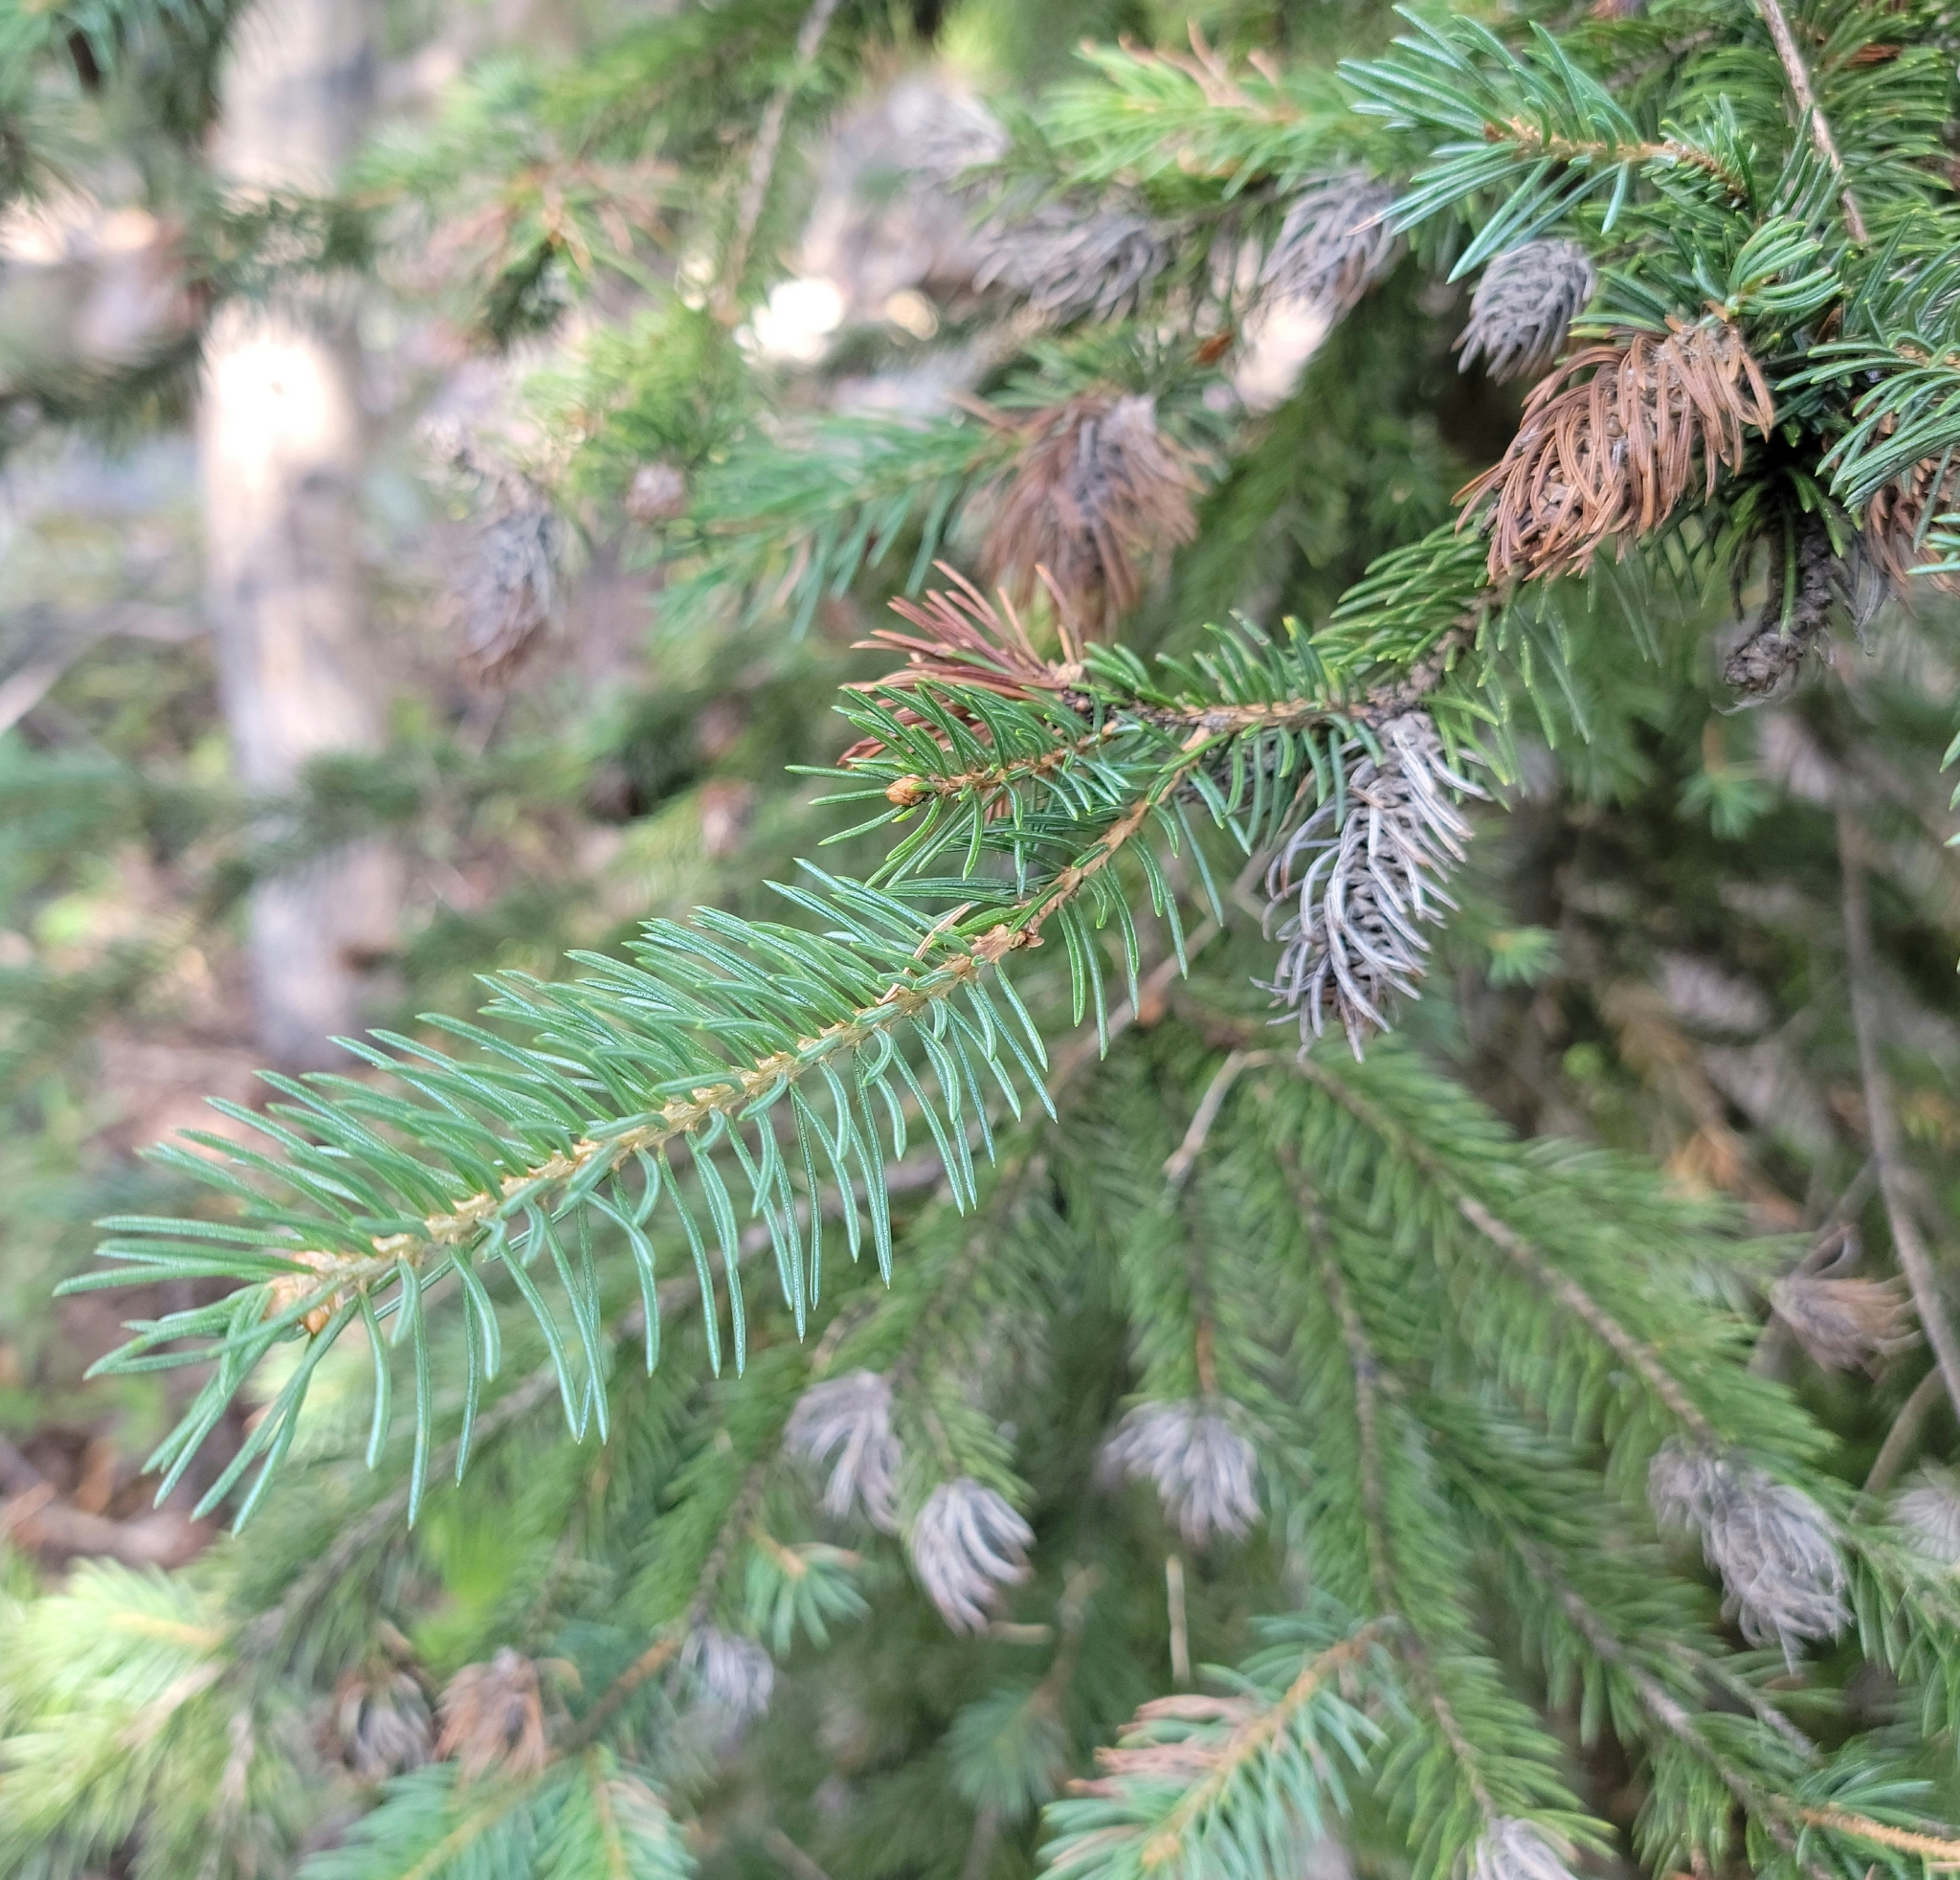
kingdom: Plantae
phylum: Tracheophyta
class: Pinopsida
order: Pinales
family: Pinaceae
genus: Pseudotsuga
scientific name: Pseudotsuga menziesii
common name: Douglas fir
